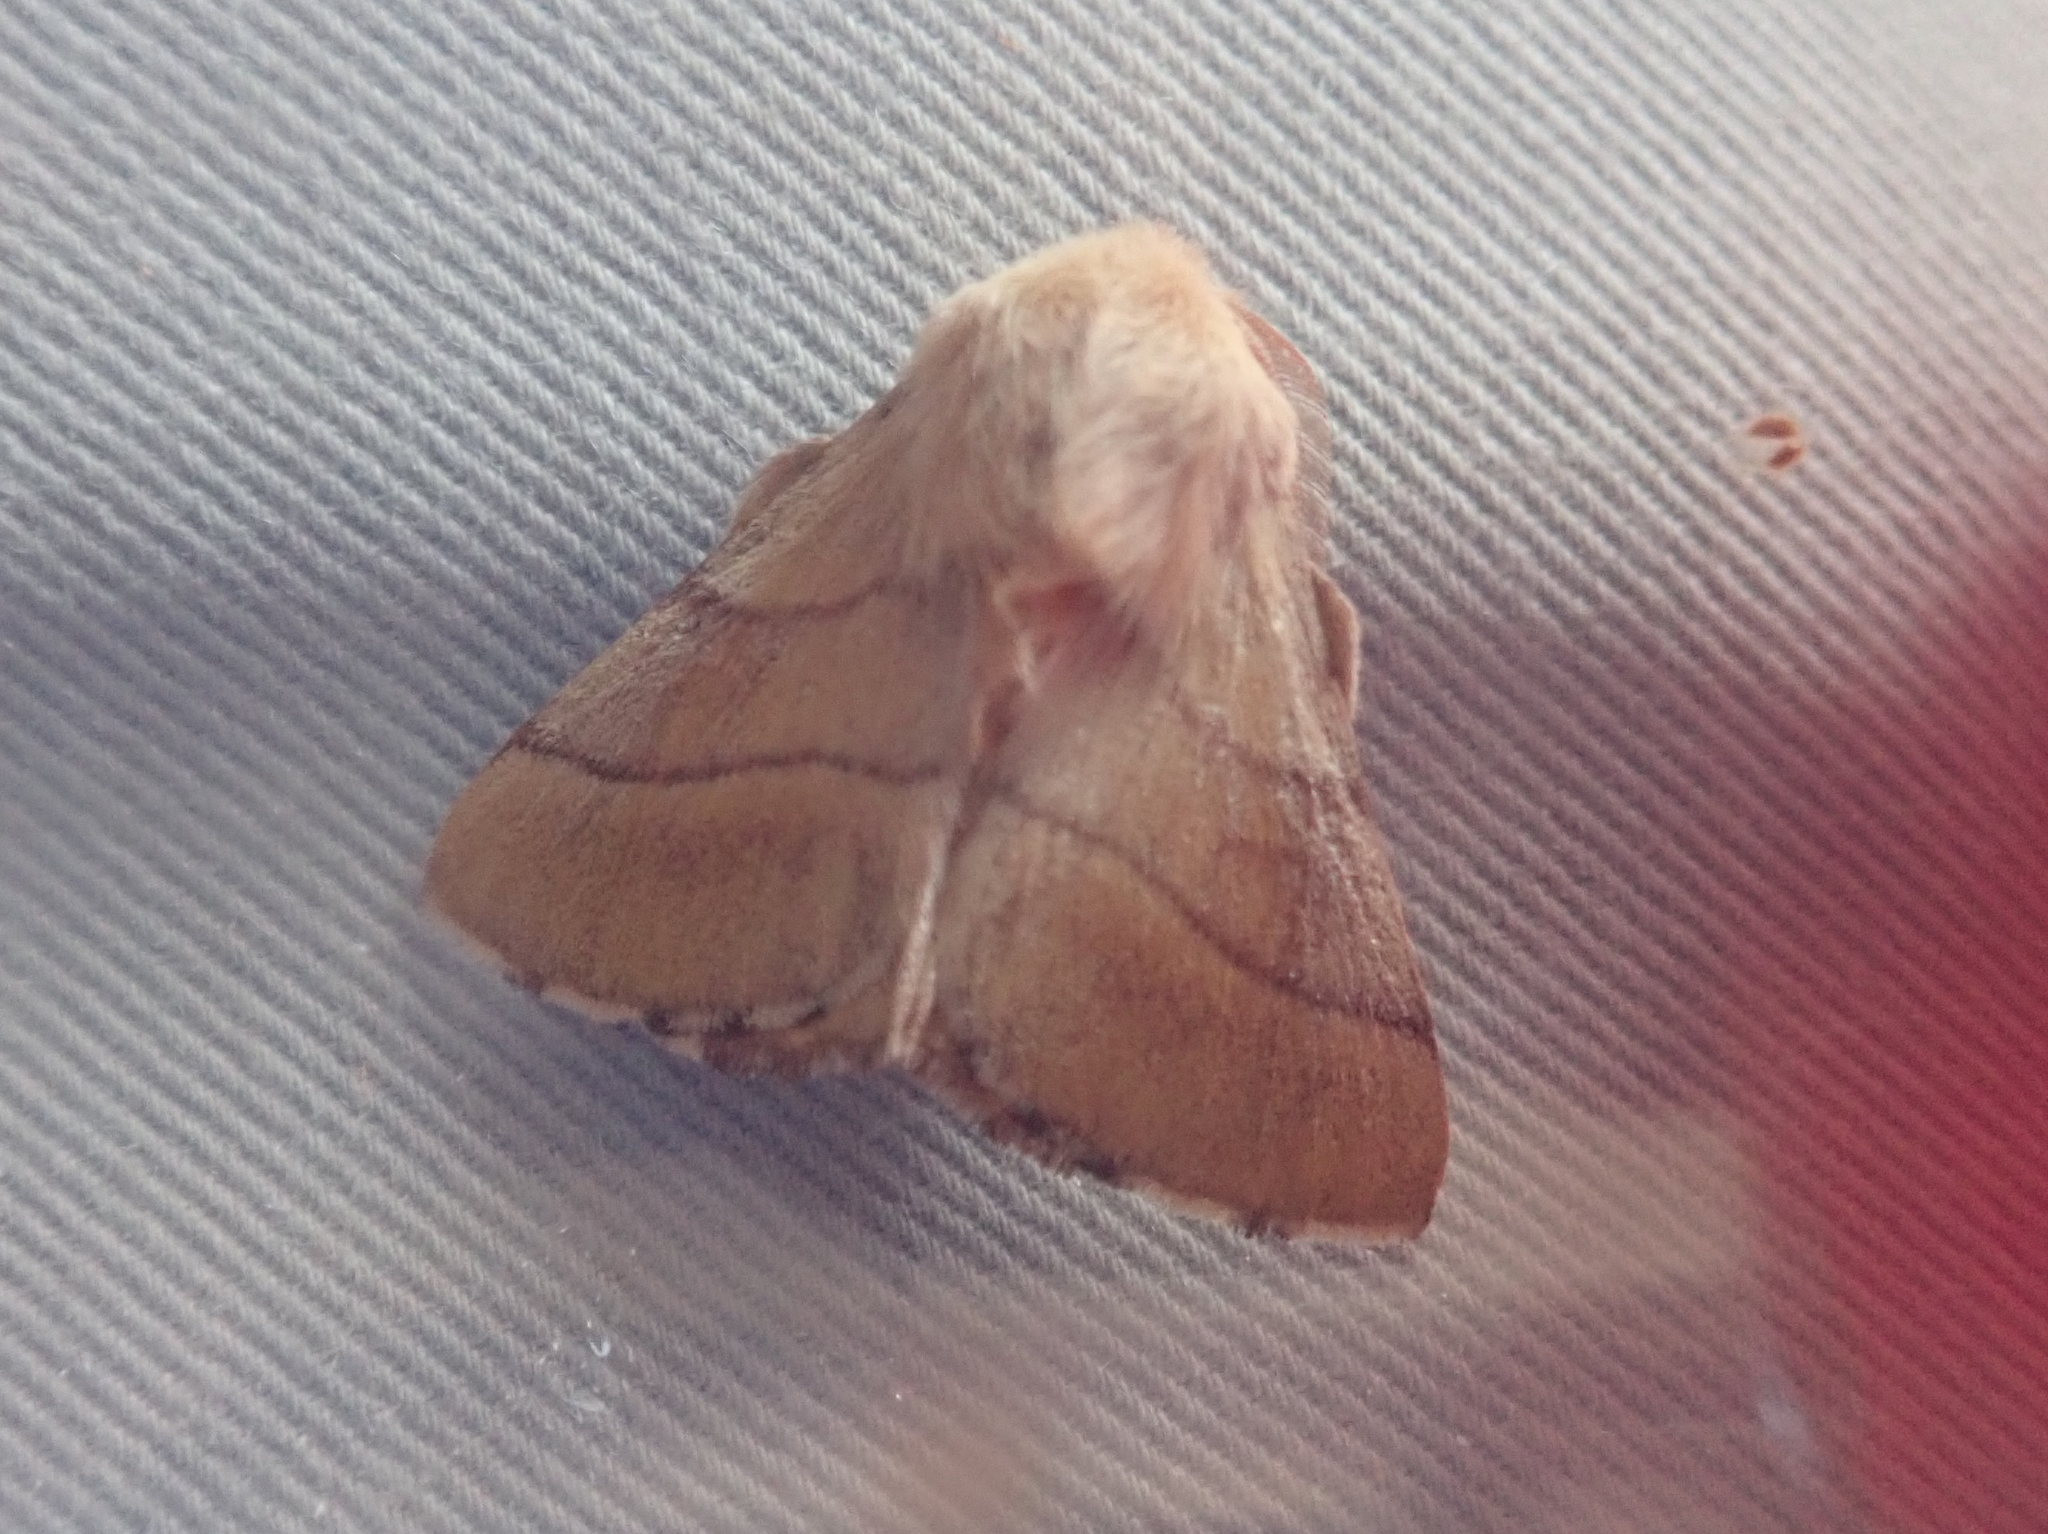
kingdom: Animalia
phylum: Arthropoda
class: Insecta
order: Lepidoptera
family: Lasiocampidae
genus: Malacosoma
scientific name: Malacosoma neustria
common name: The lackey
